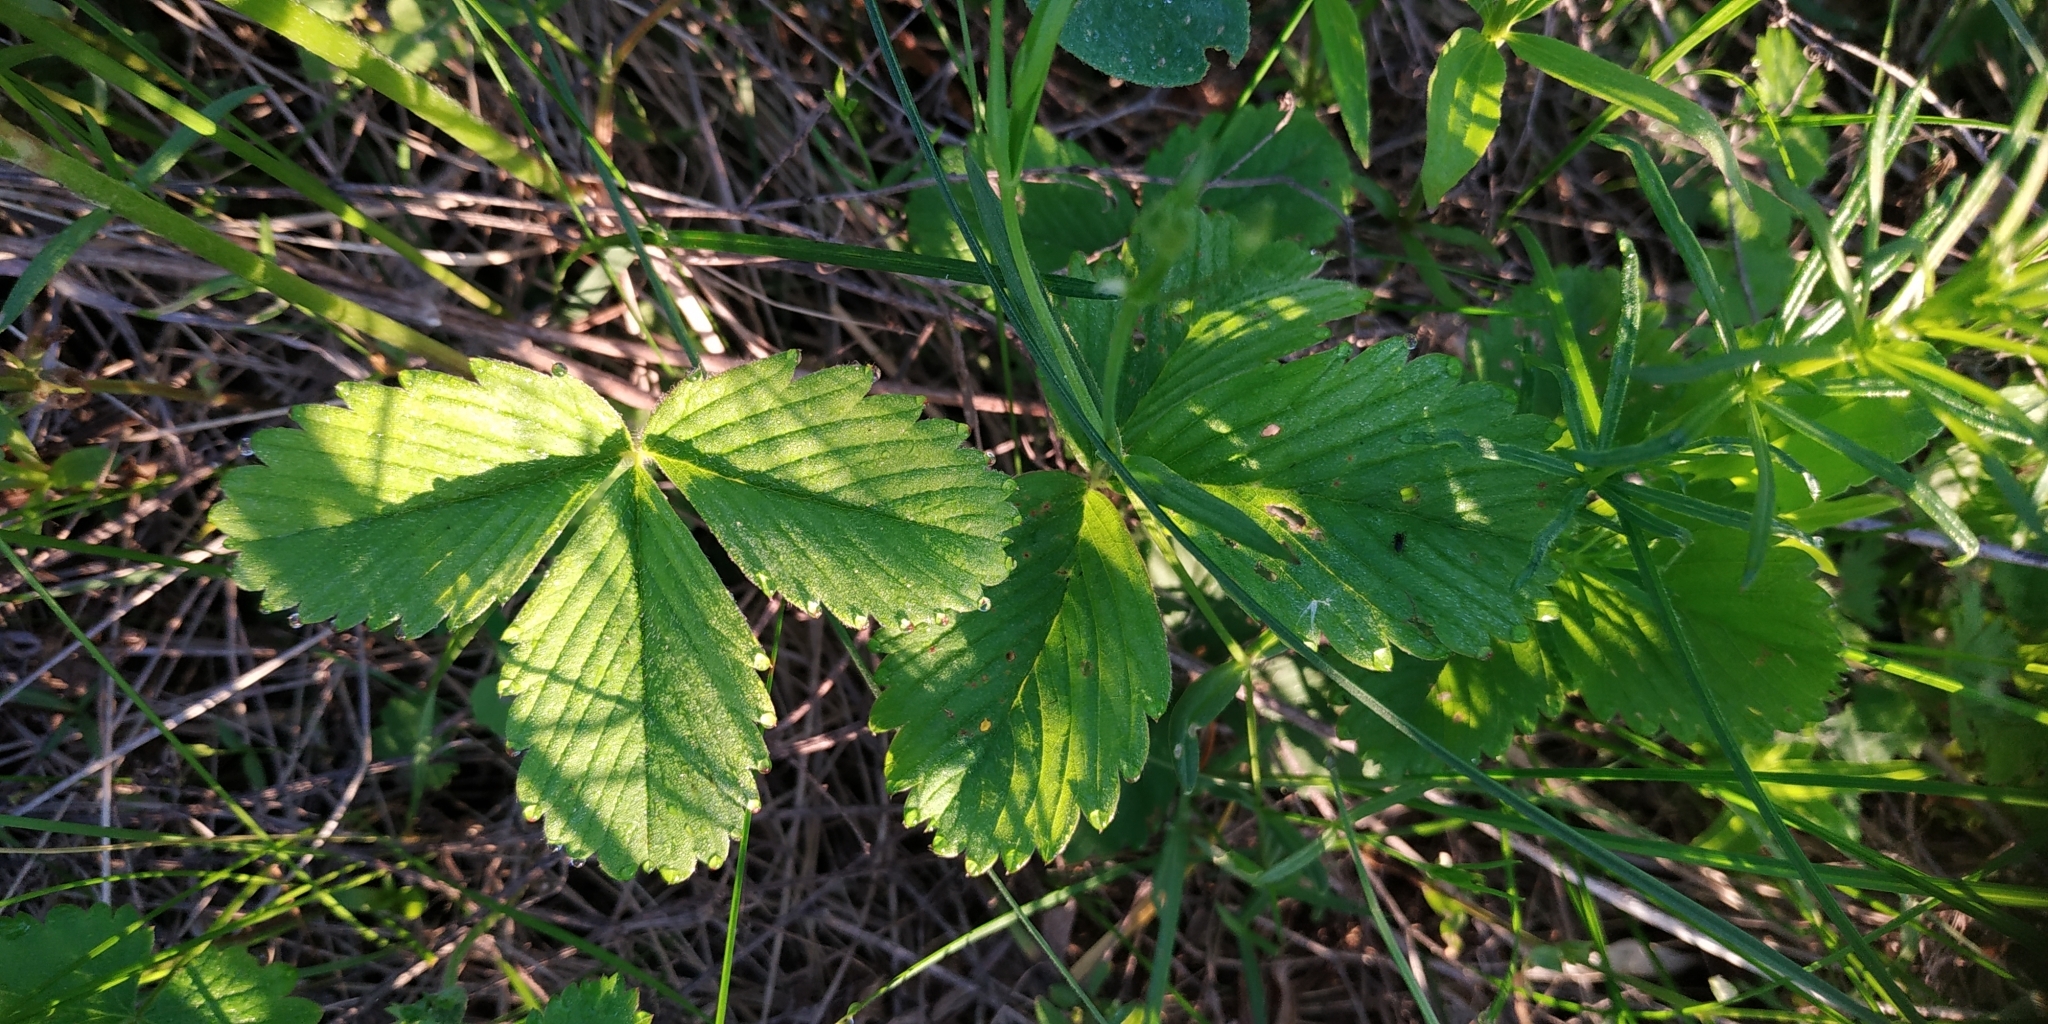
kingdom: Plantae
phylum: Tracheophyta
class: Magnoliopsida
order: Rosales
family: Rosaceae
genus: Fragaria
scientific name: Fragaria viridis
